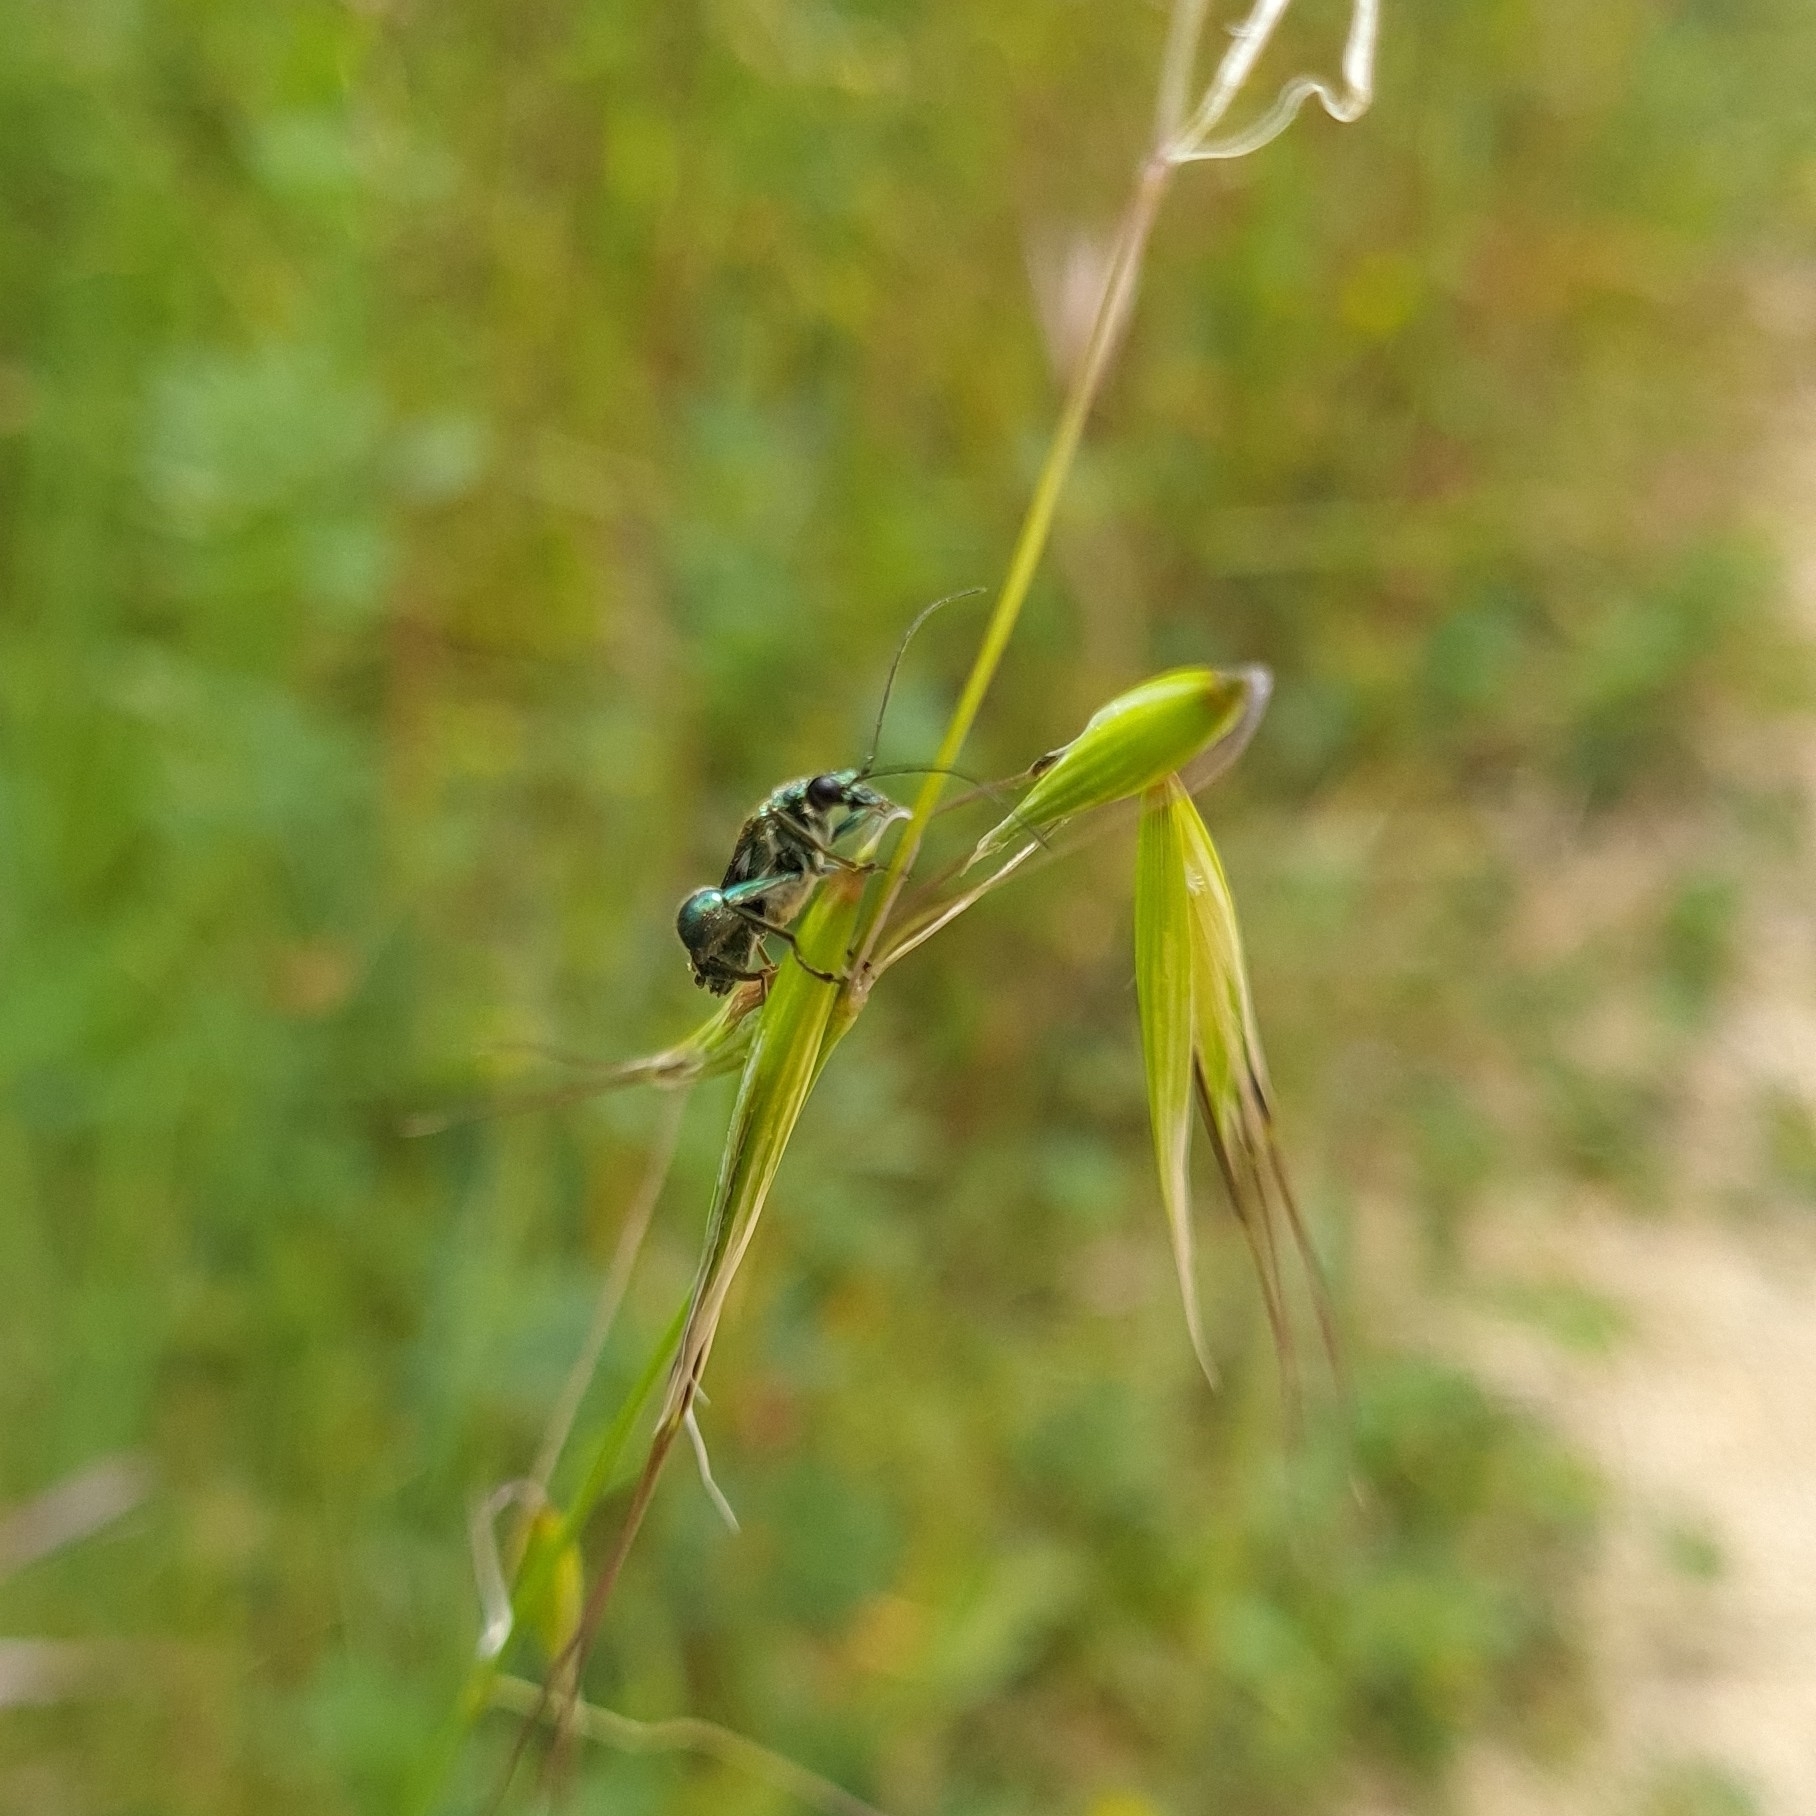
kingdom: Animalia
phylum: Arthropoda
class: Insecta
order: Coleoptera
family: Oedemeridae
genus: Oedemera
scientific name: Oedemera nobilis
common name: Swollen-thighed beetle
